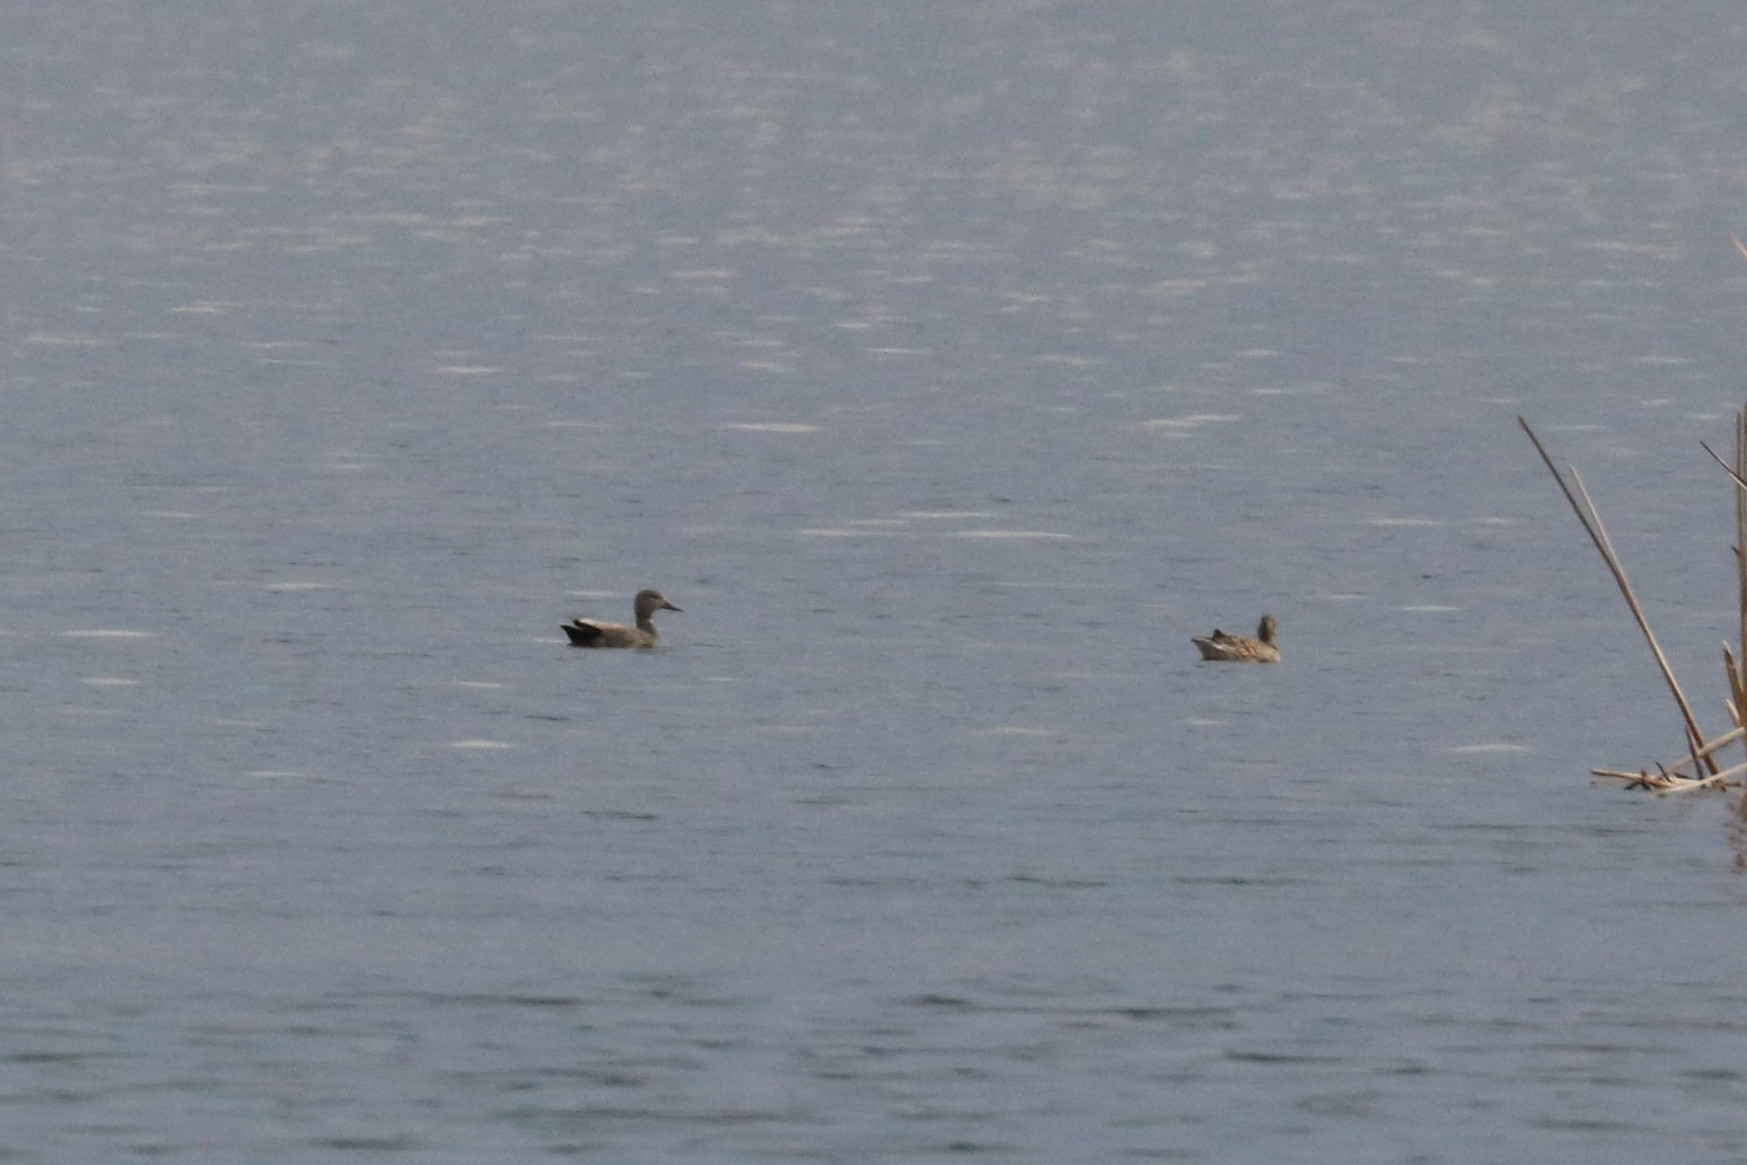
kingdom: Animalia
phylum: Chordata
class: Aves
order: Anseriformes
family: Anatidae
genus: Mareca
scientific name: Mareca strepera
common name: Gadwall
